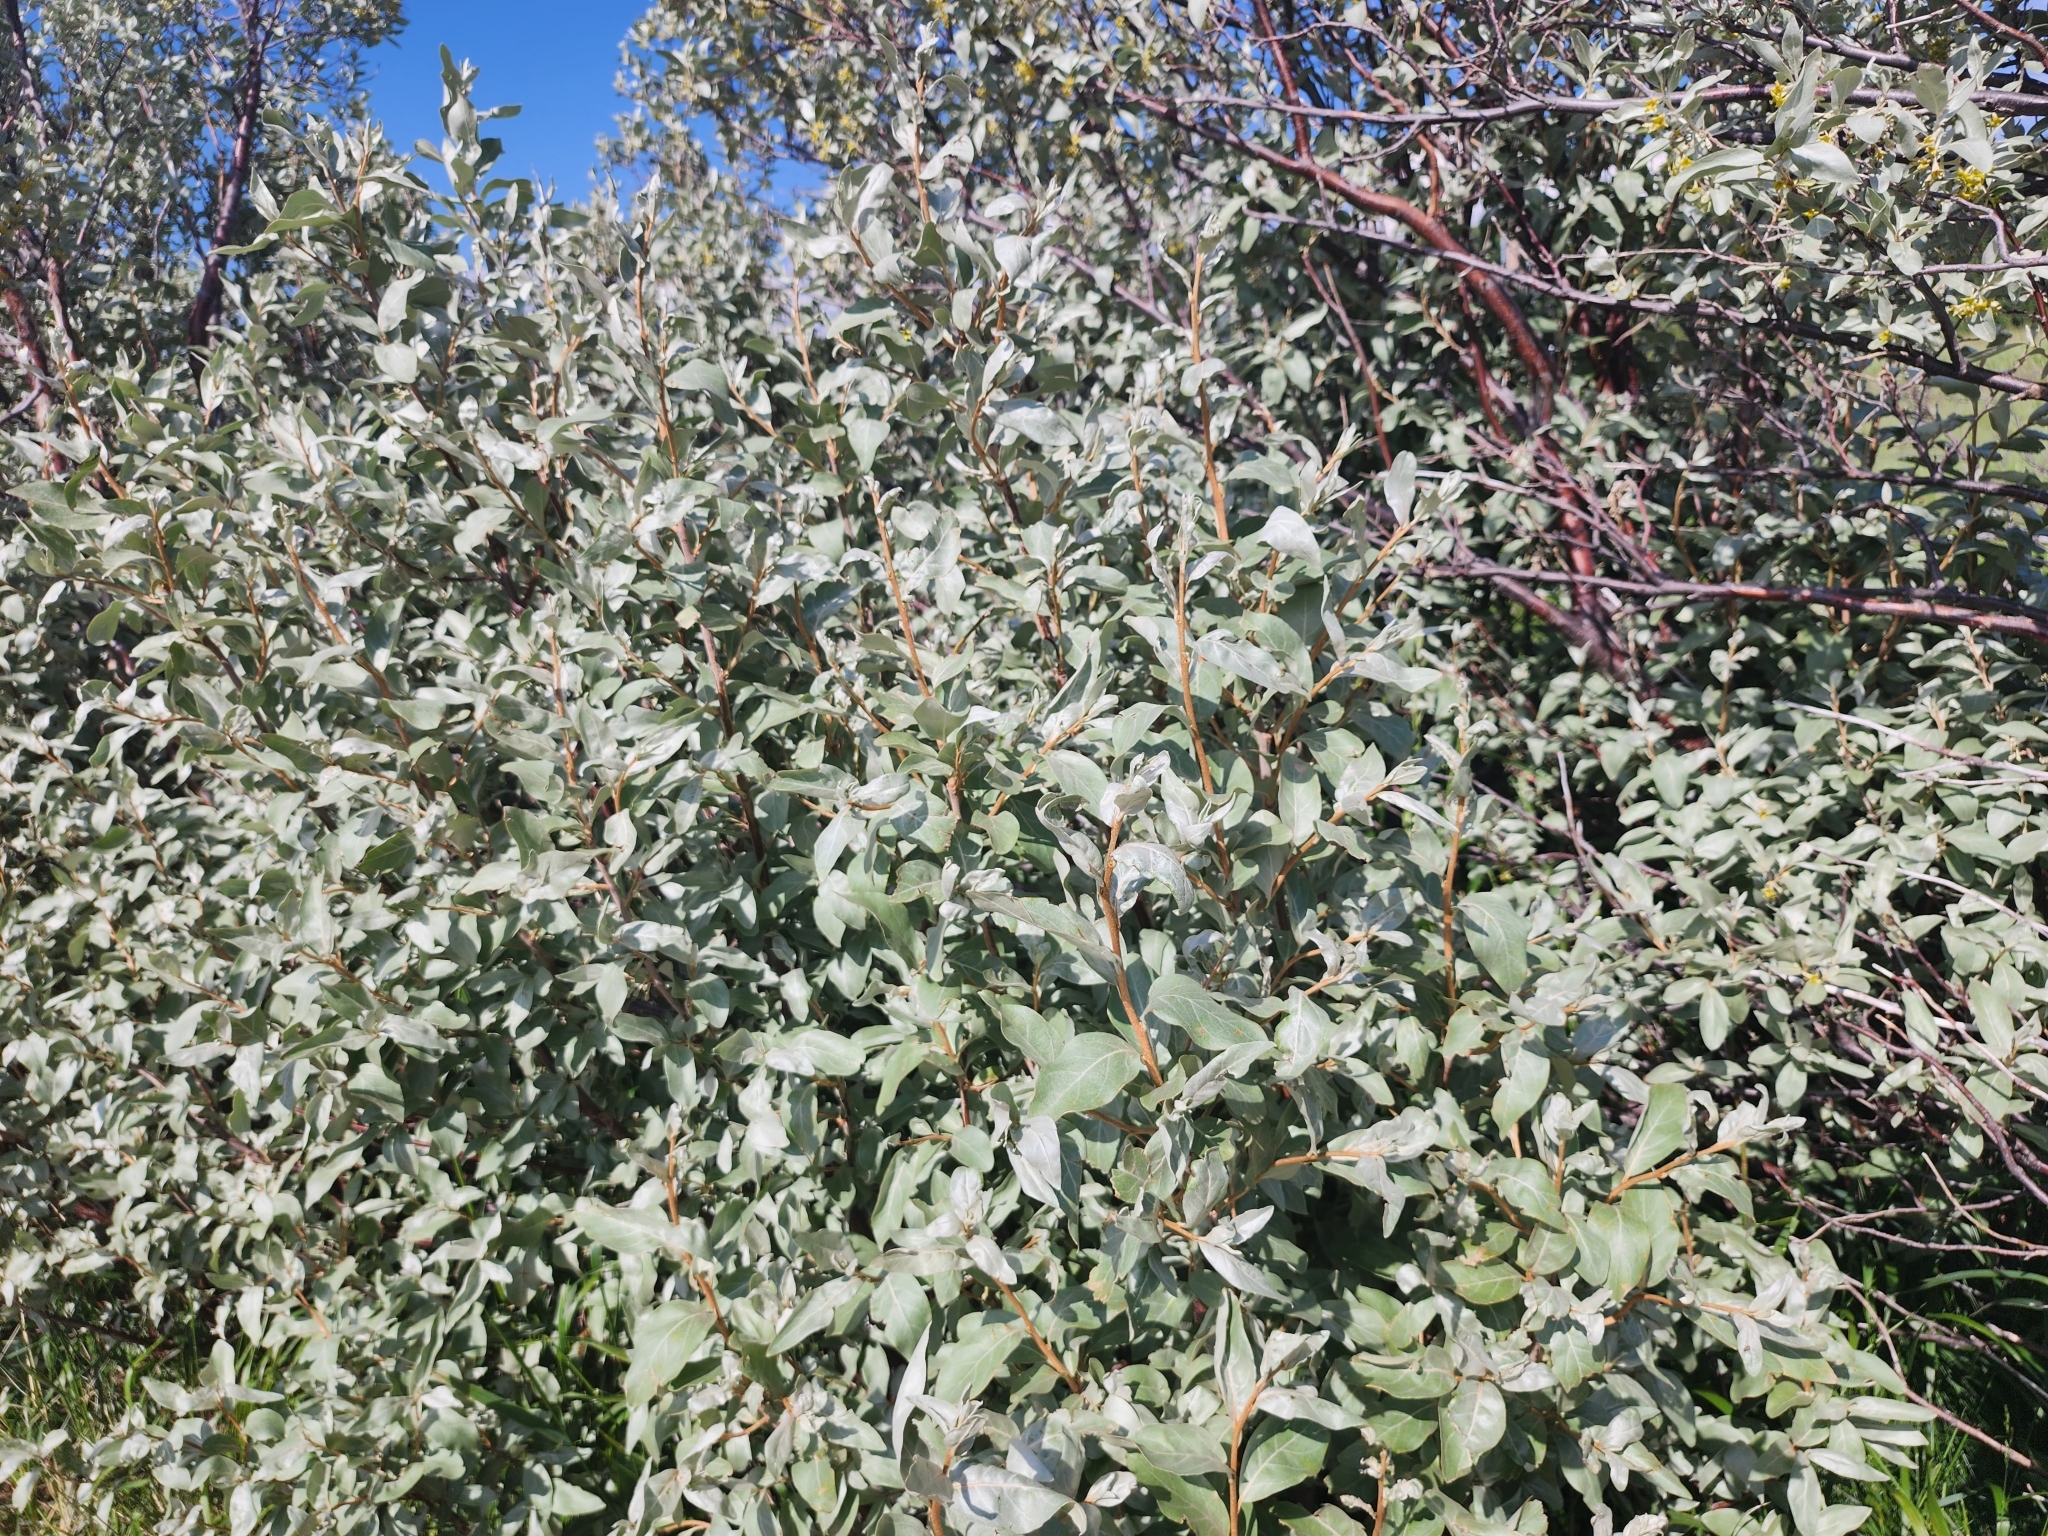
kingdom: Plantae
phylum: Tracheophyta
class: Magnoliopsida
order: Rosales
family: Elaeagnaceae
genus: Elaeagnus
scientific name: Elaeagnus commutata
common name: Silverberry
